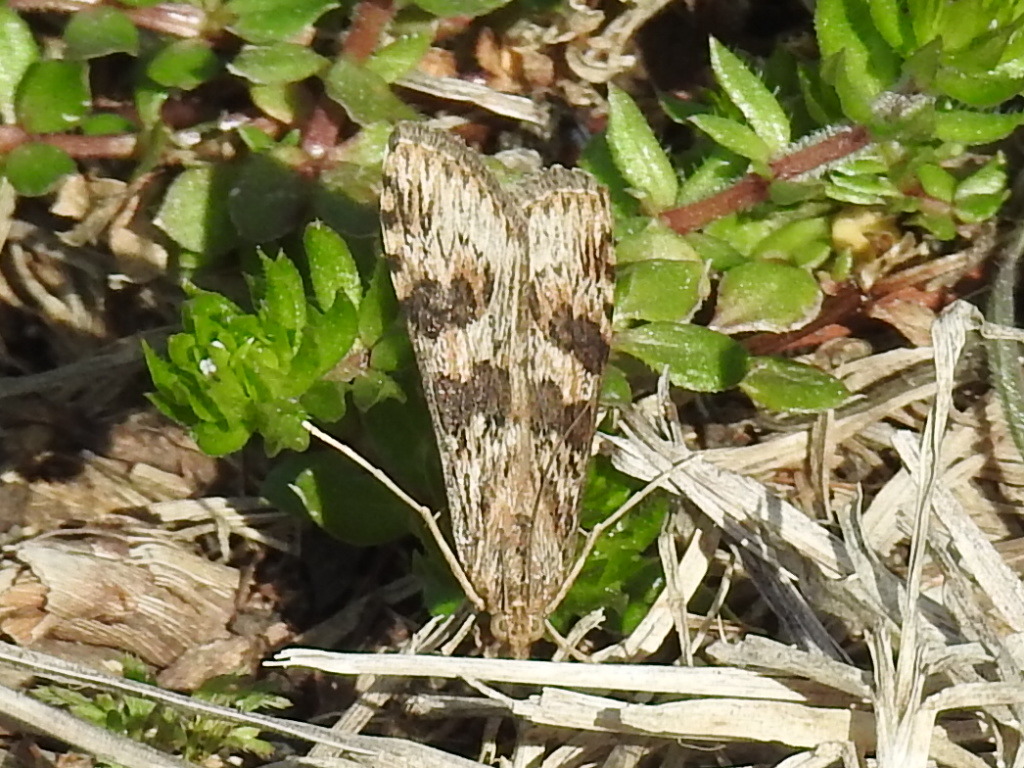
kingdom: Animalia
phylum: Arthropoda
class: Insecta
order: Lepidoptera
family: Crambidae
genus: Nomophila
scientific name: Nomophila nearctica
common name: American rush veneer
